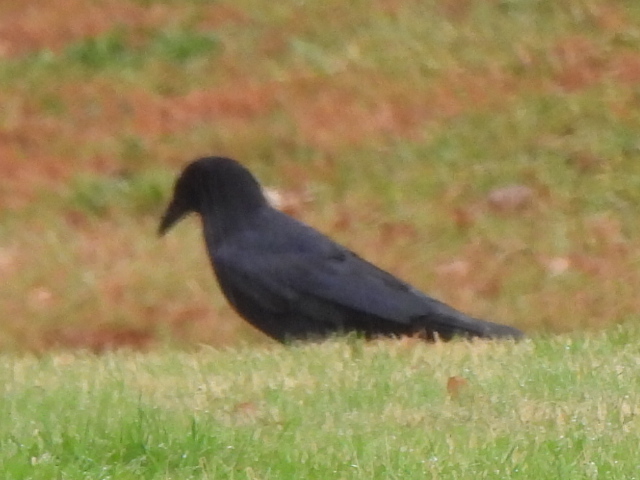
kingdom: Animalia
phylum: Chordata
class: Aves
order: Passeriformes
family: Corvidae
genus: Corvus
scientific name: Corvus brachyrhynchos
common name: American crow
